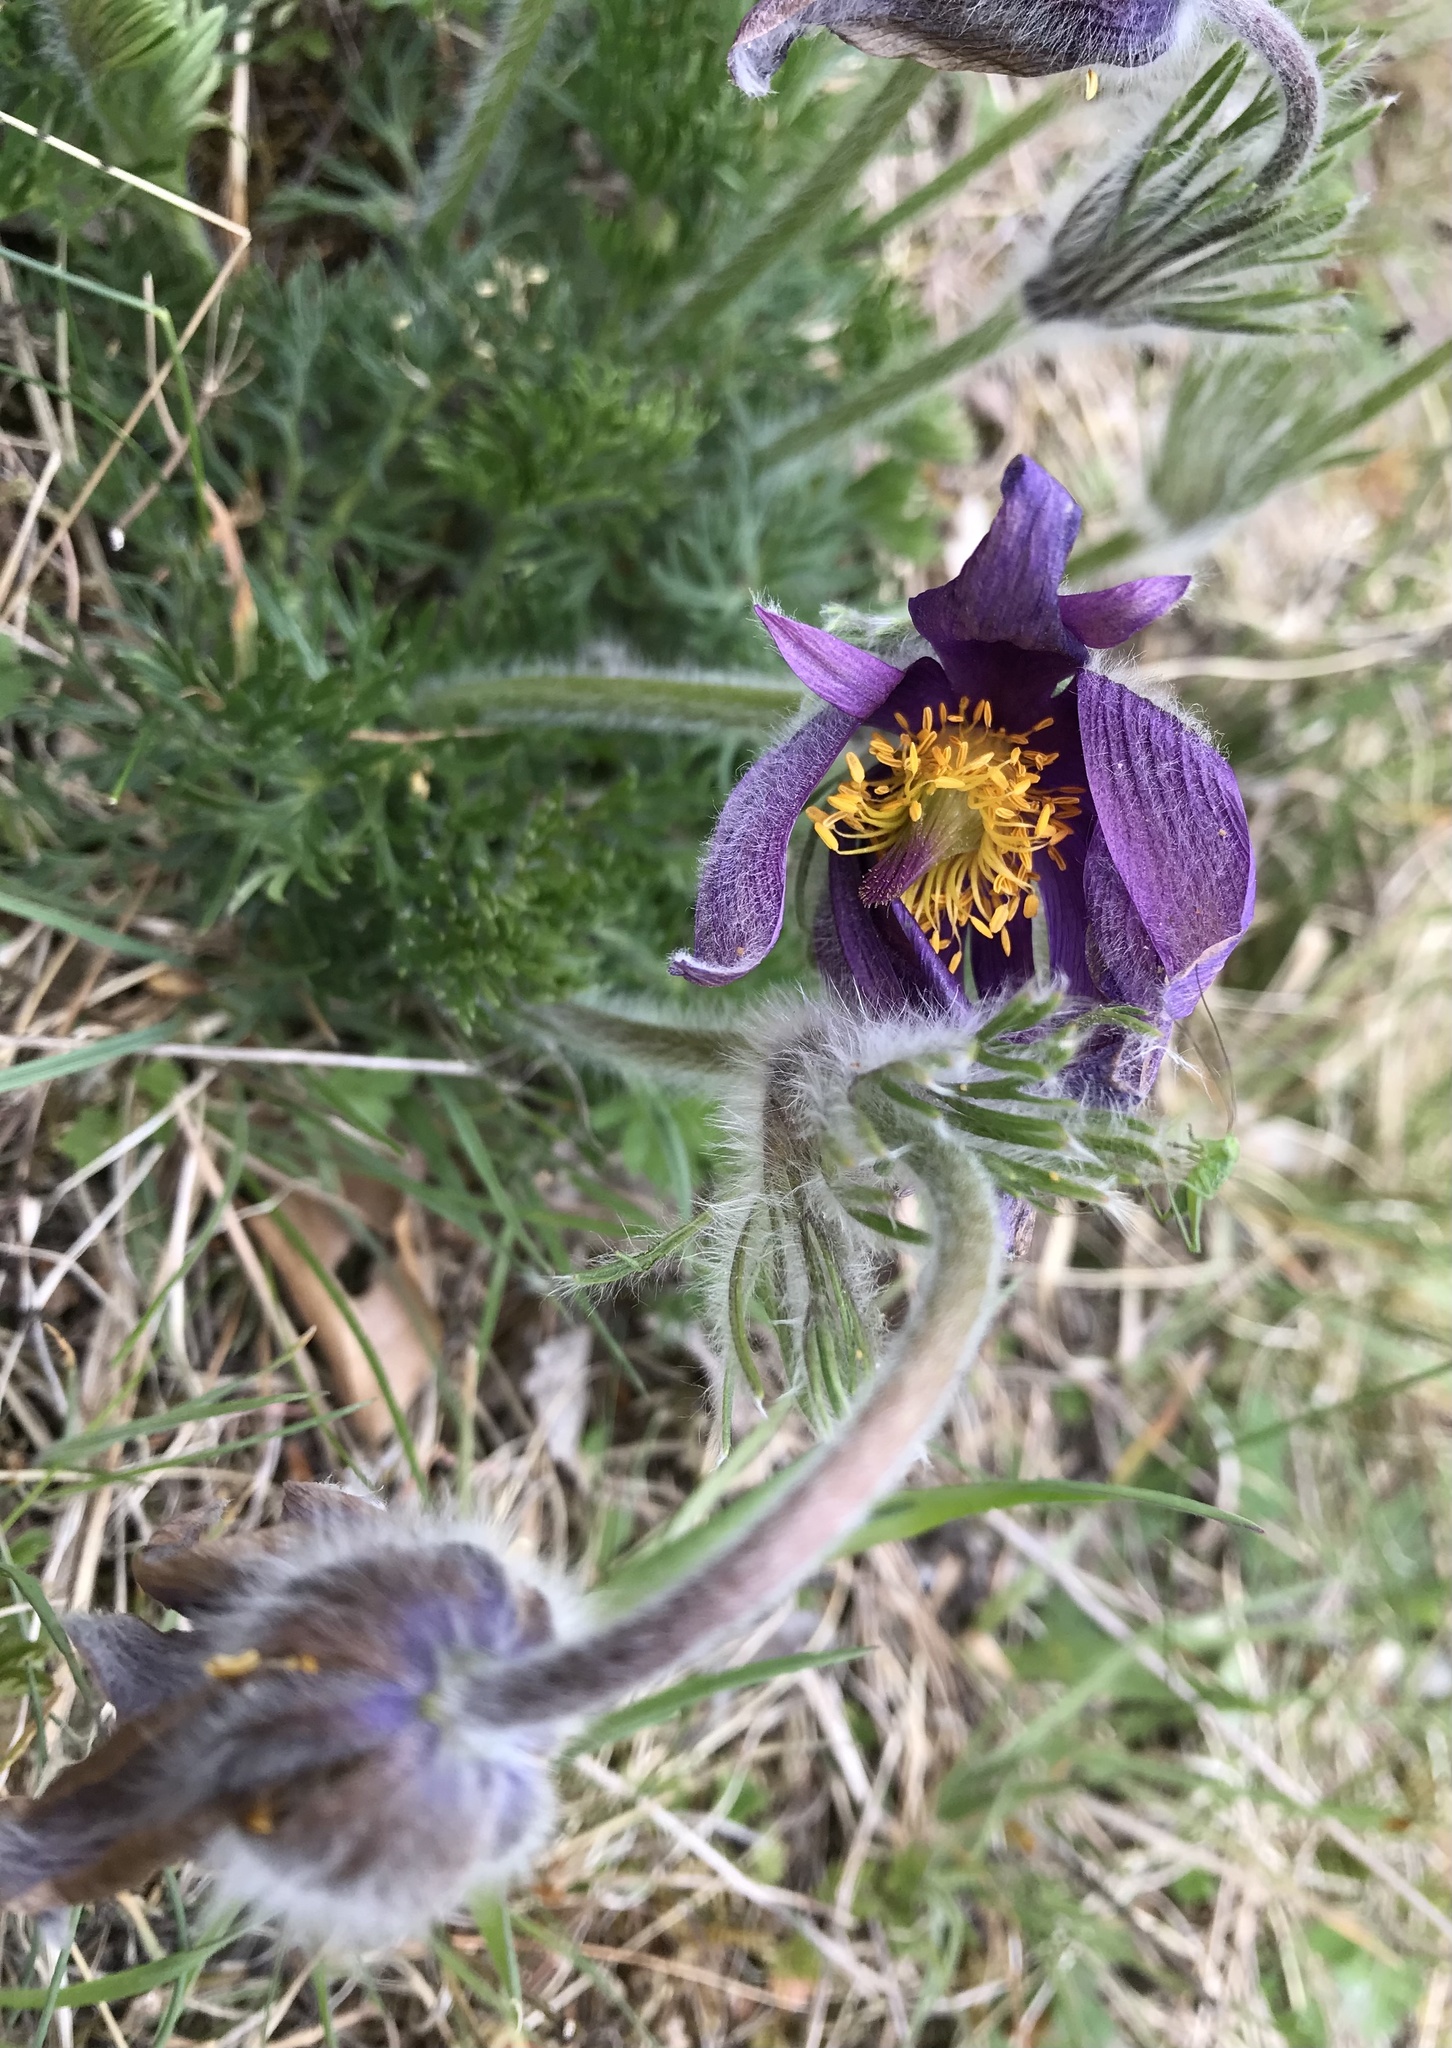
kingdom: Plantae
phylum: Tracheophyta
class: Magnoliopsida
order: Ranunculales
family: Ranunculaceae
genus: Pulsatilla
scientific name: Pulsatilla vulgaris
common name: Pasqueflower
